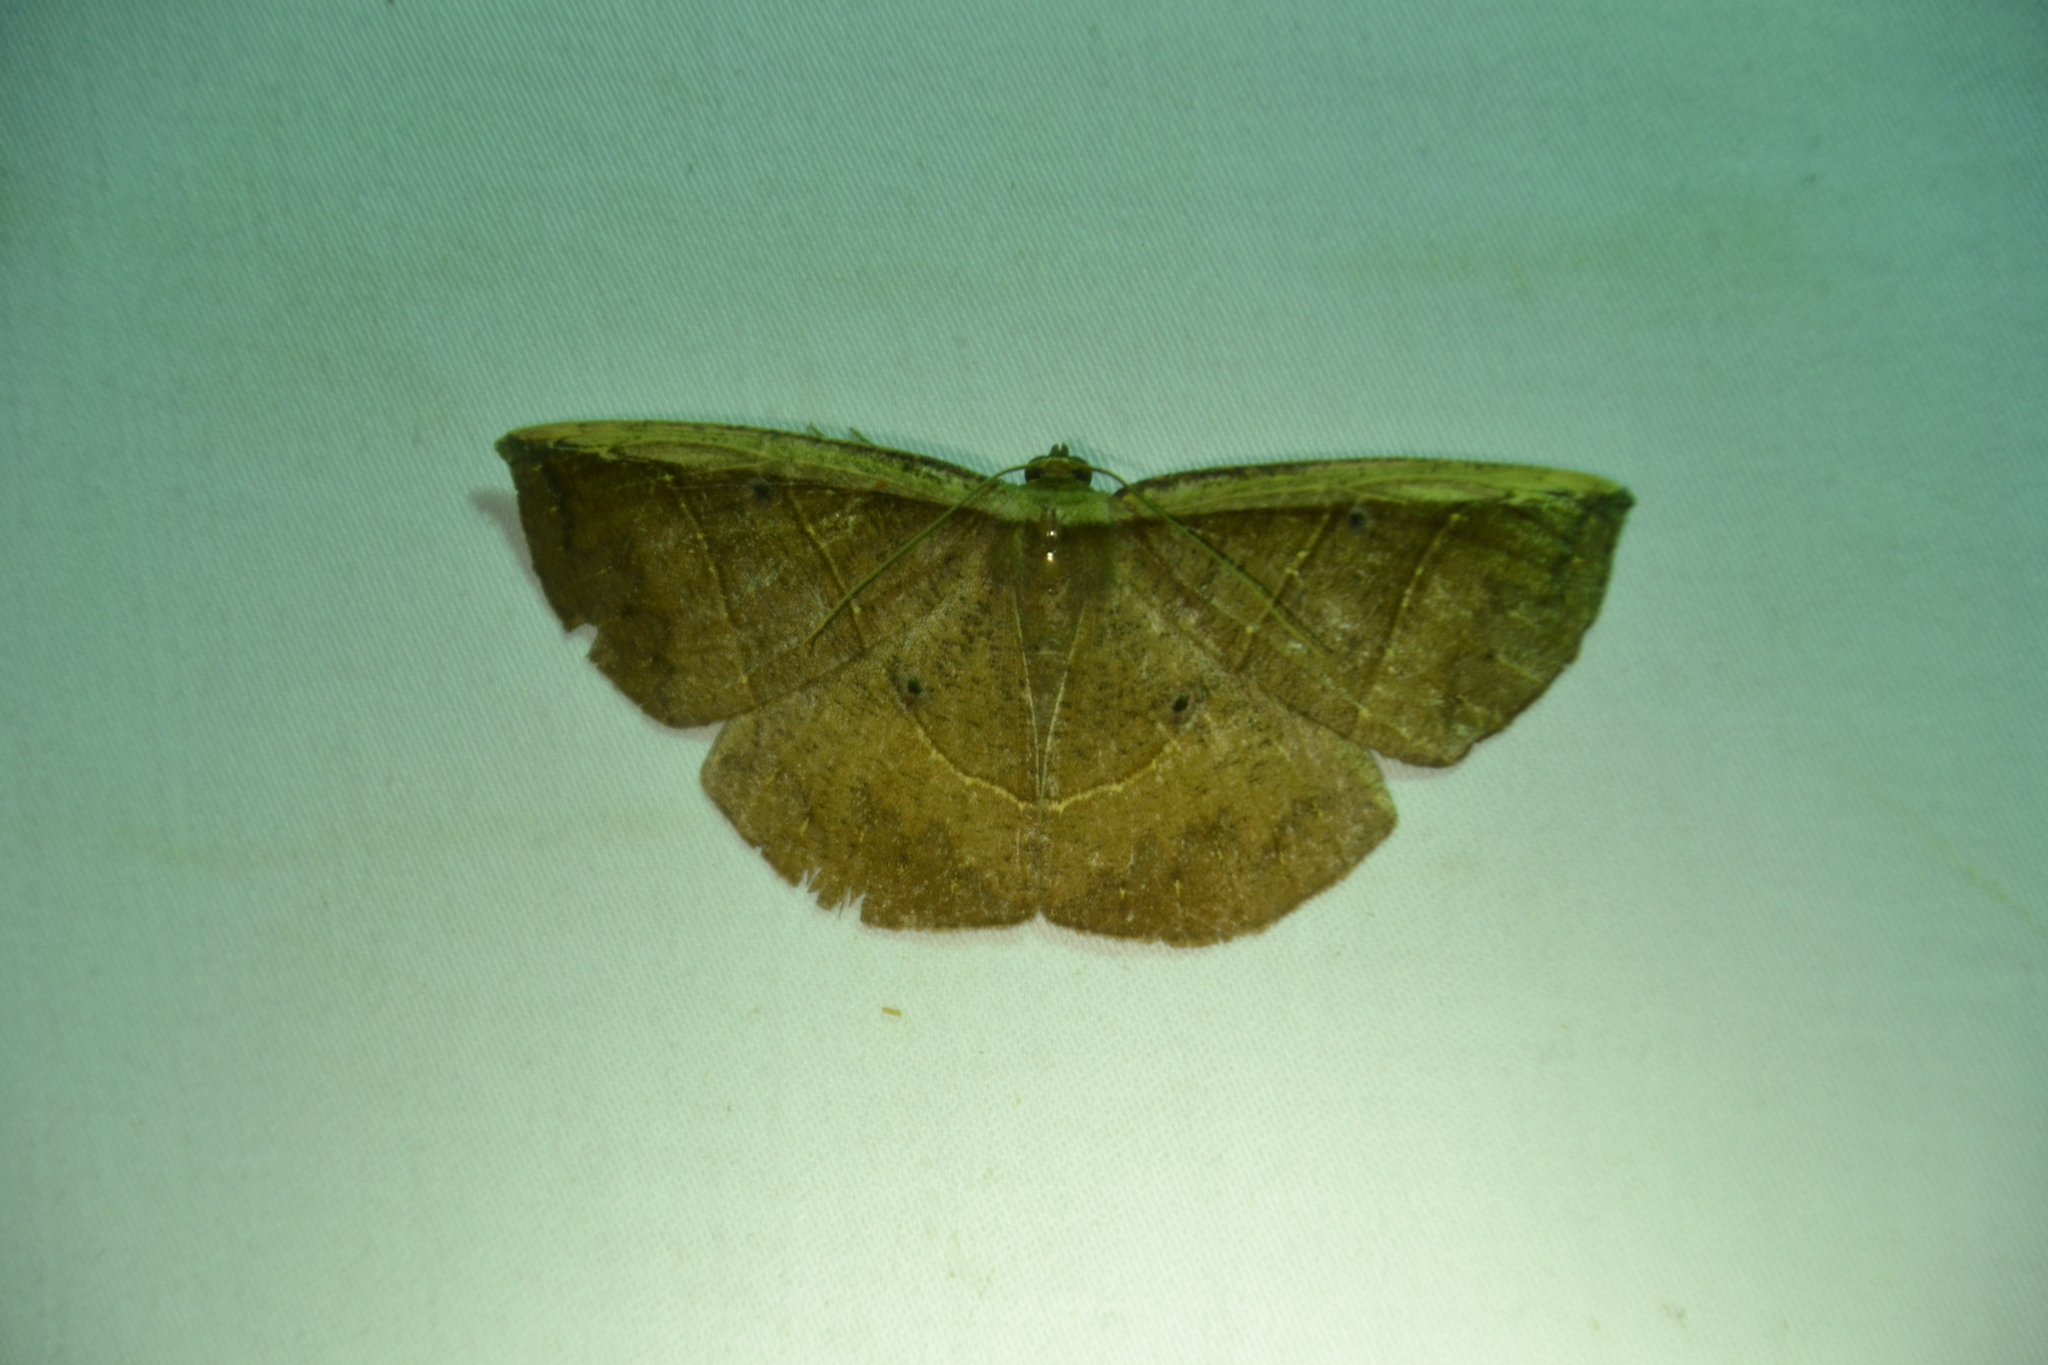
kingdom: Animalia
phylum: Arthropoda
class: Insecta
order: Lepidoptera
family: Geometridae
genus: Cimicodes
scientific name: Cimicodes albicosta
